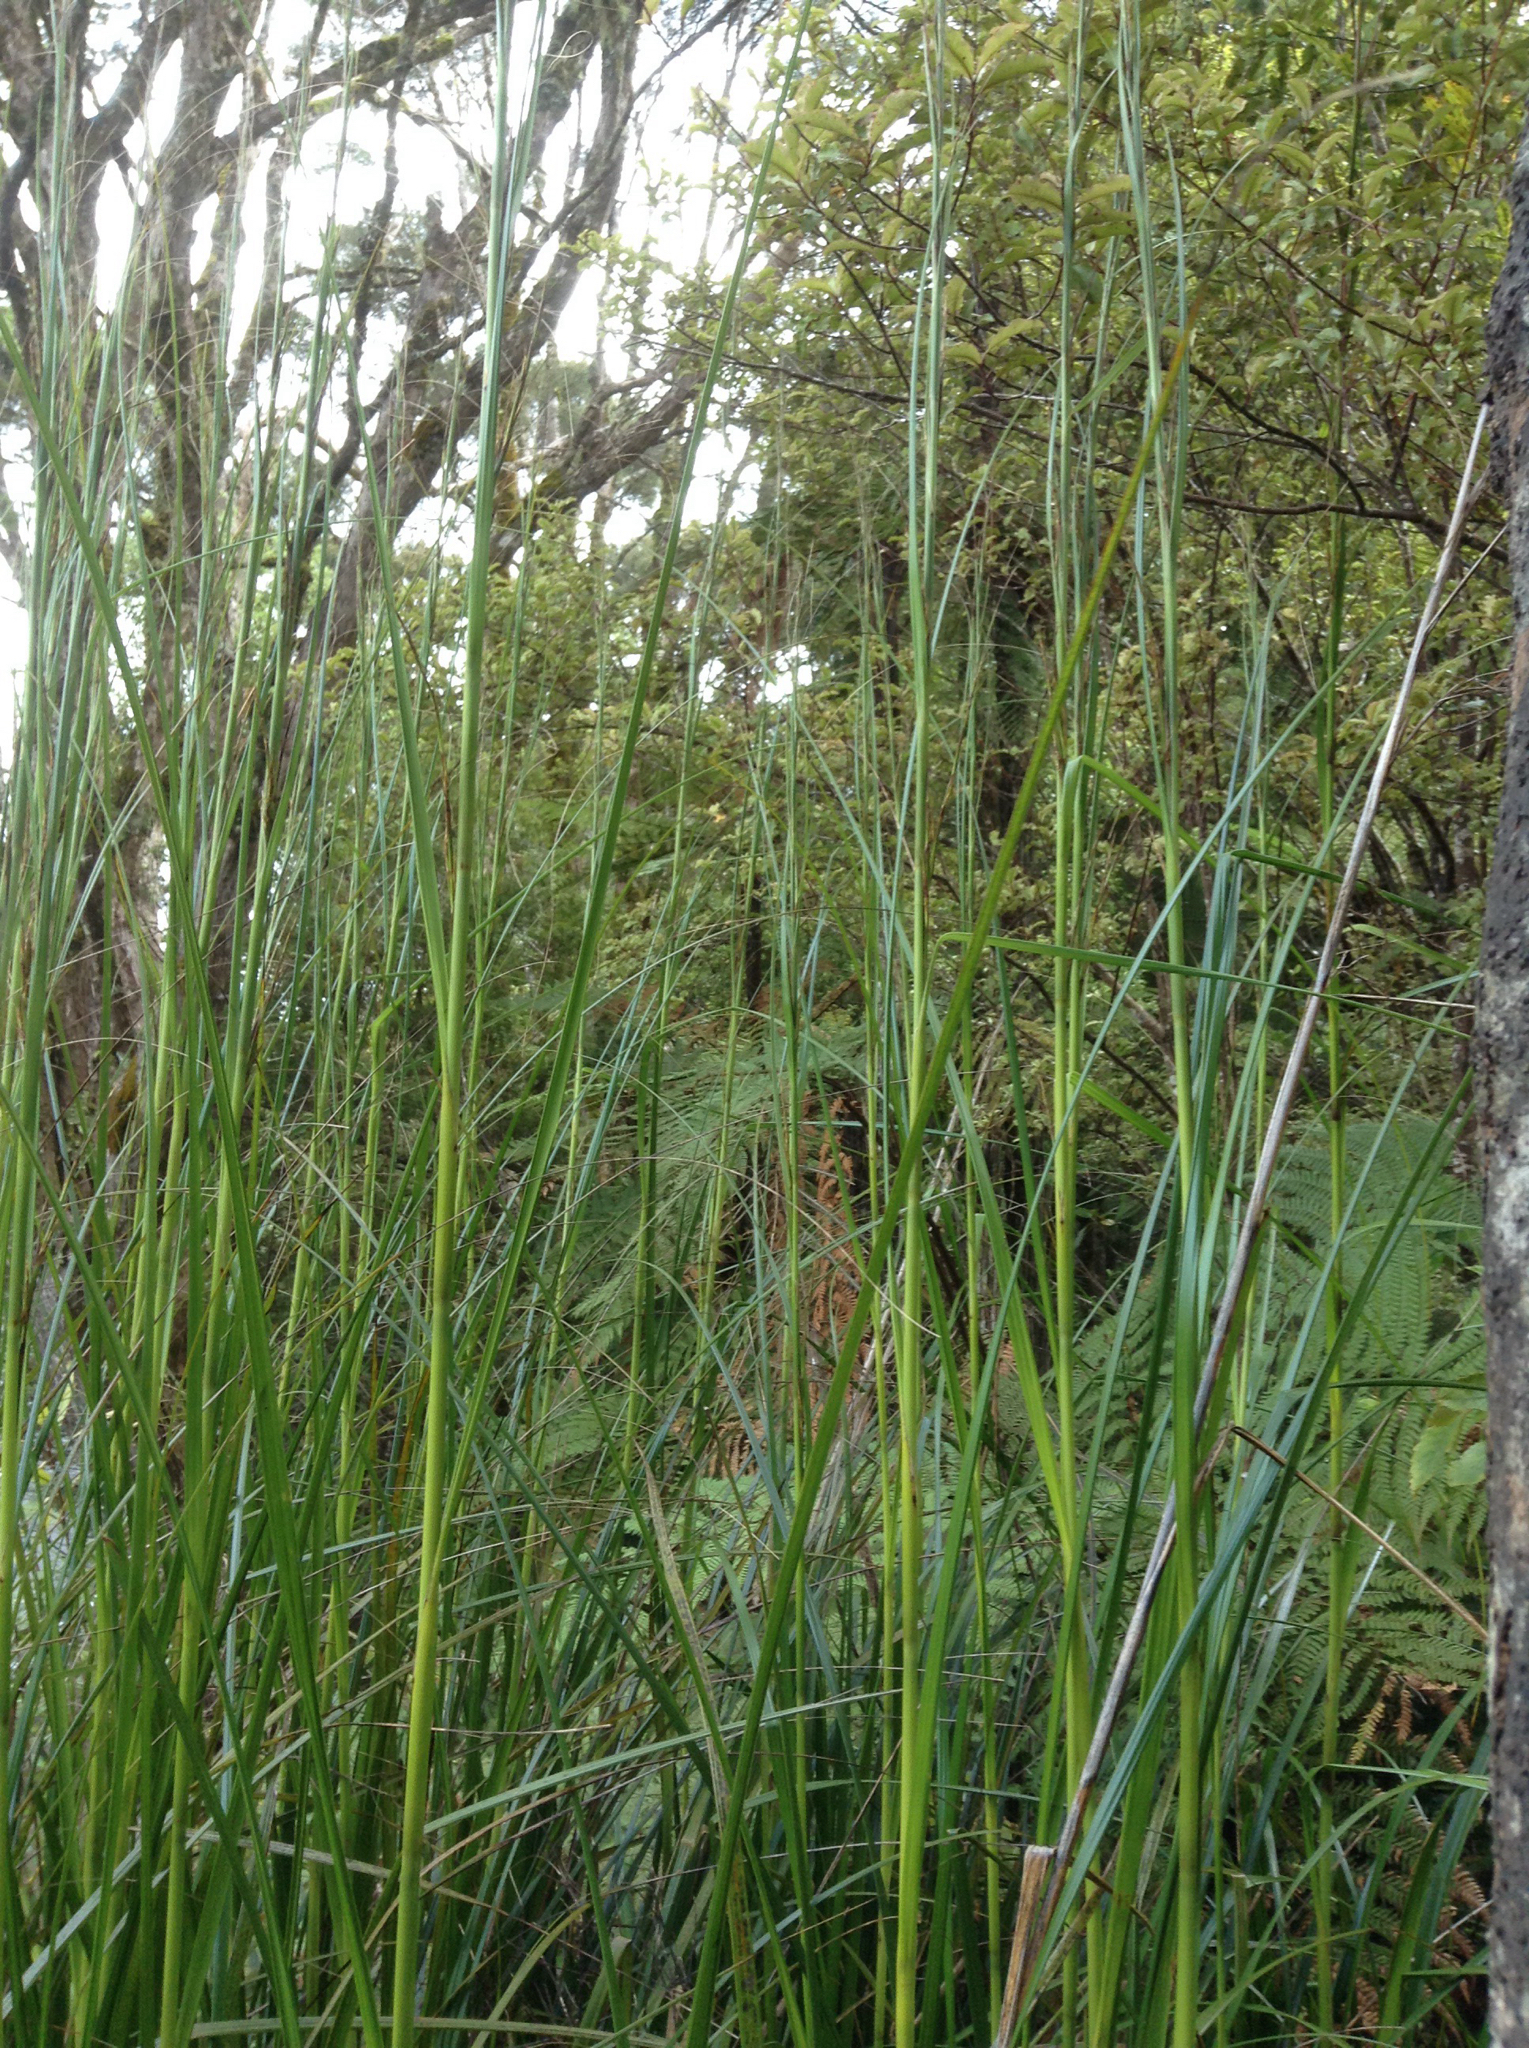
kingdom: Plantae
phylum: Tracheophyta
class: Liliopsida
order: Poales
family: Cyperaceae
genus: Gahnia
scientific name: Gahnia xanthocarpa
